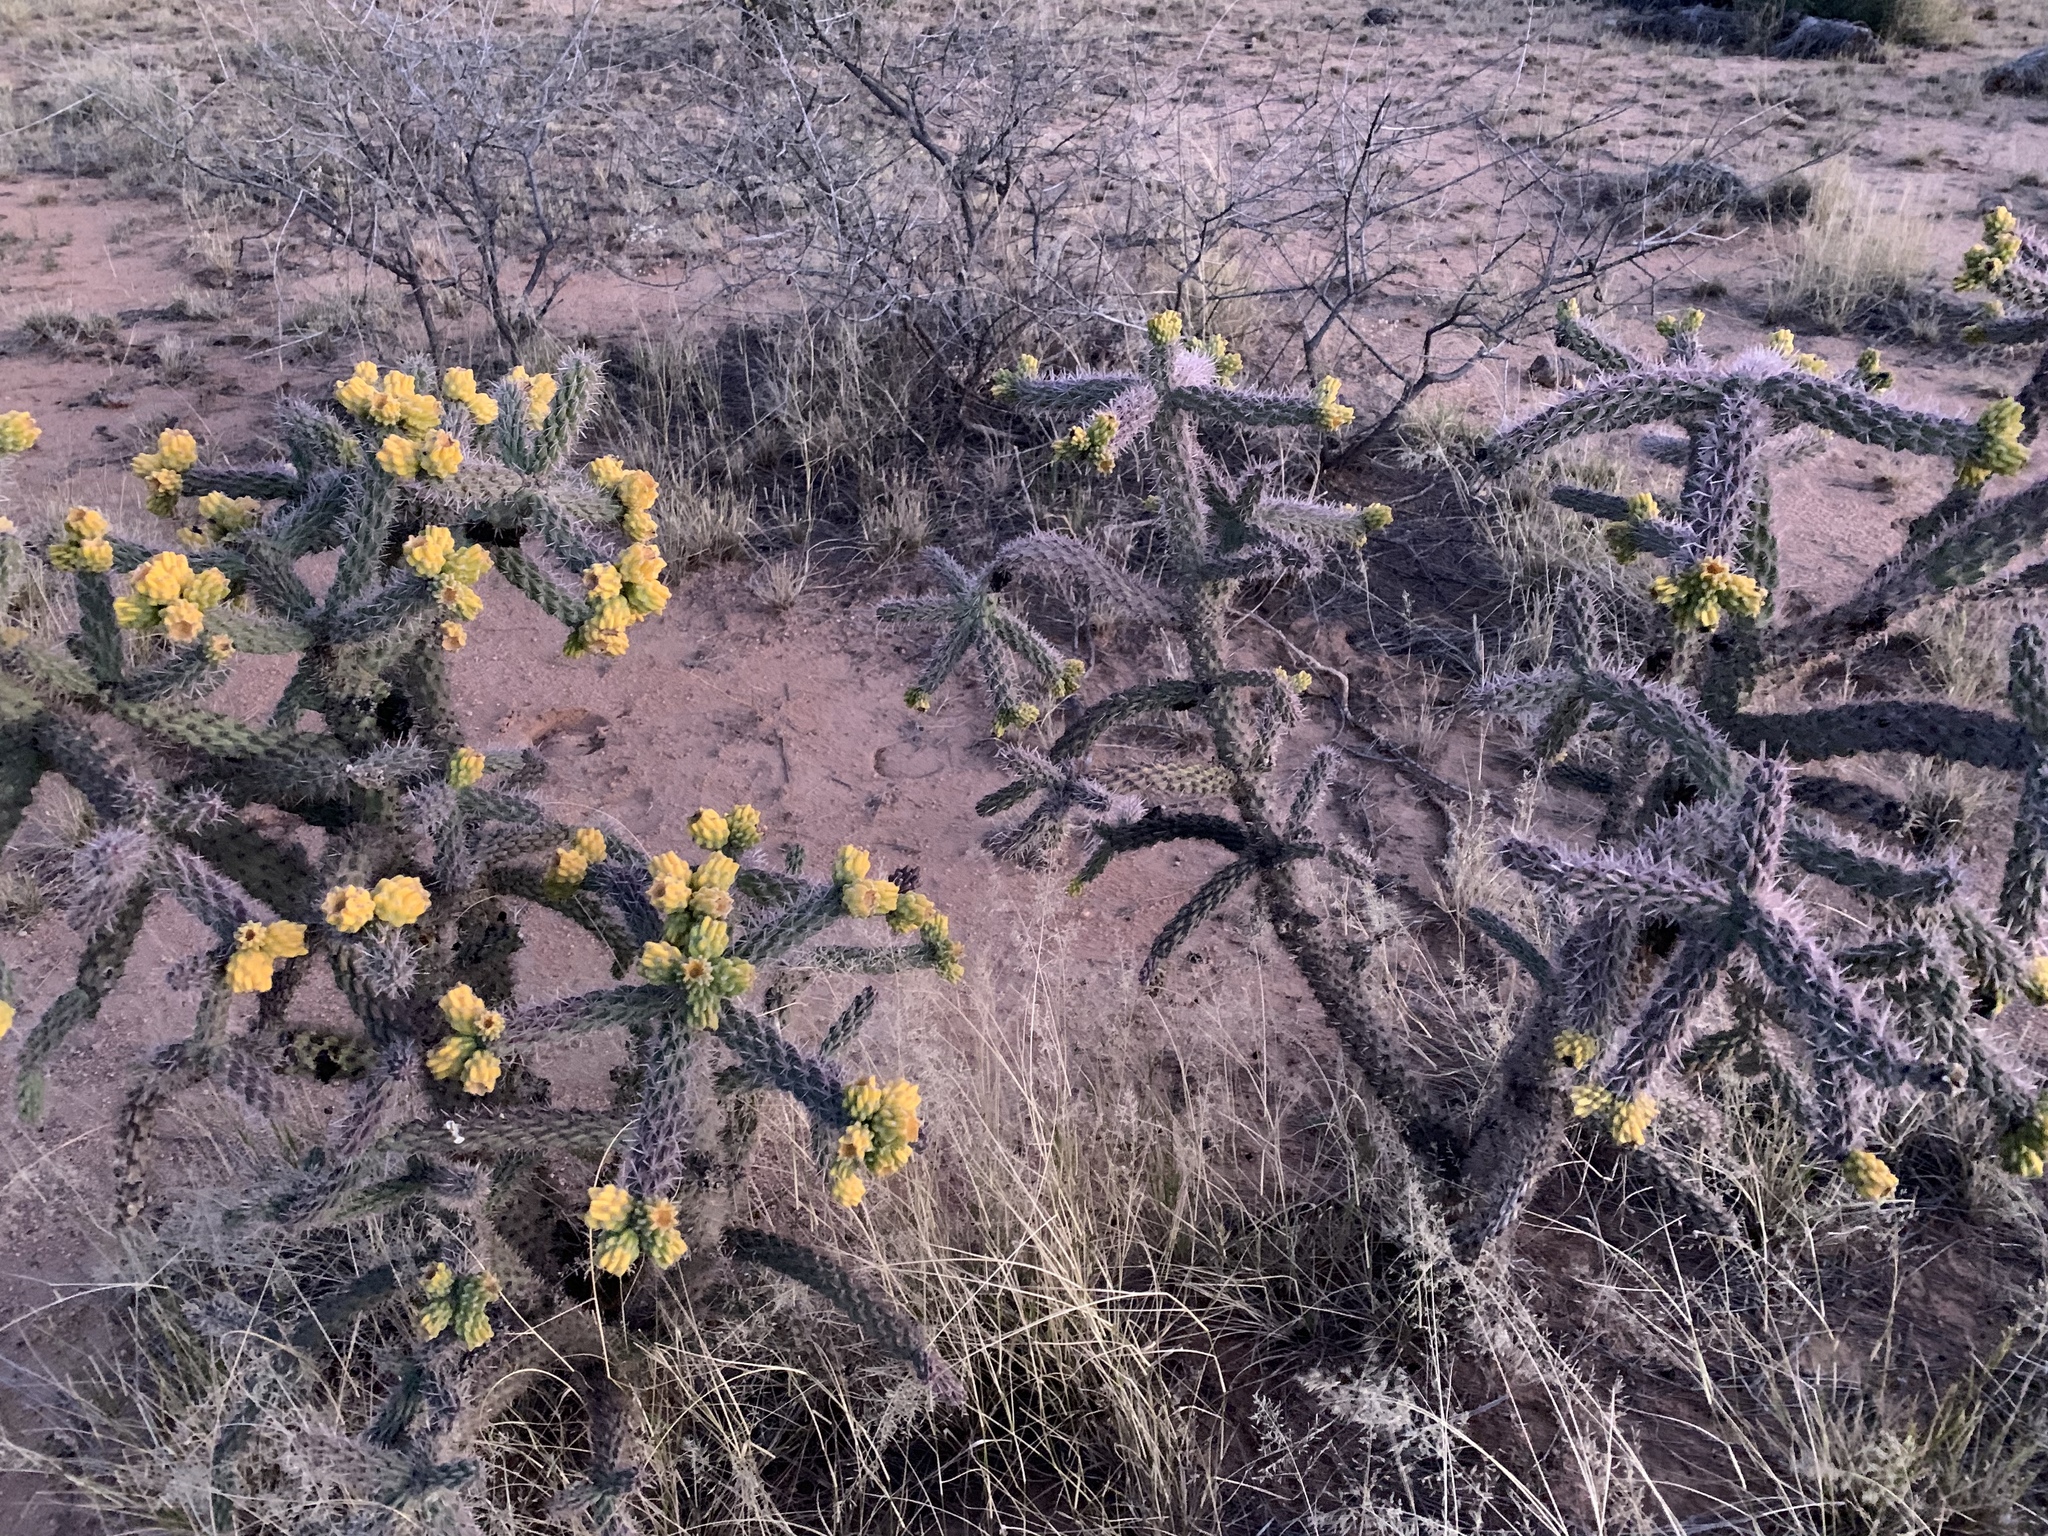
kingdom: Plantae
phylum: Tracheophyta
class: Magnoliopsida
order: Caryophyllales
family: Cactaceae
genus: Cylindropuntia
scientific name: Cylindropuntia imbricata
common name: Candelabrum cactus
